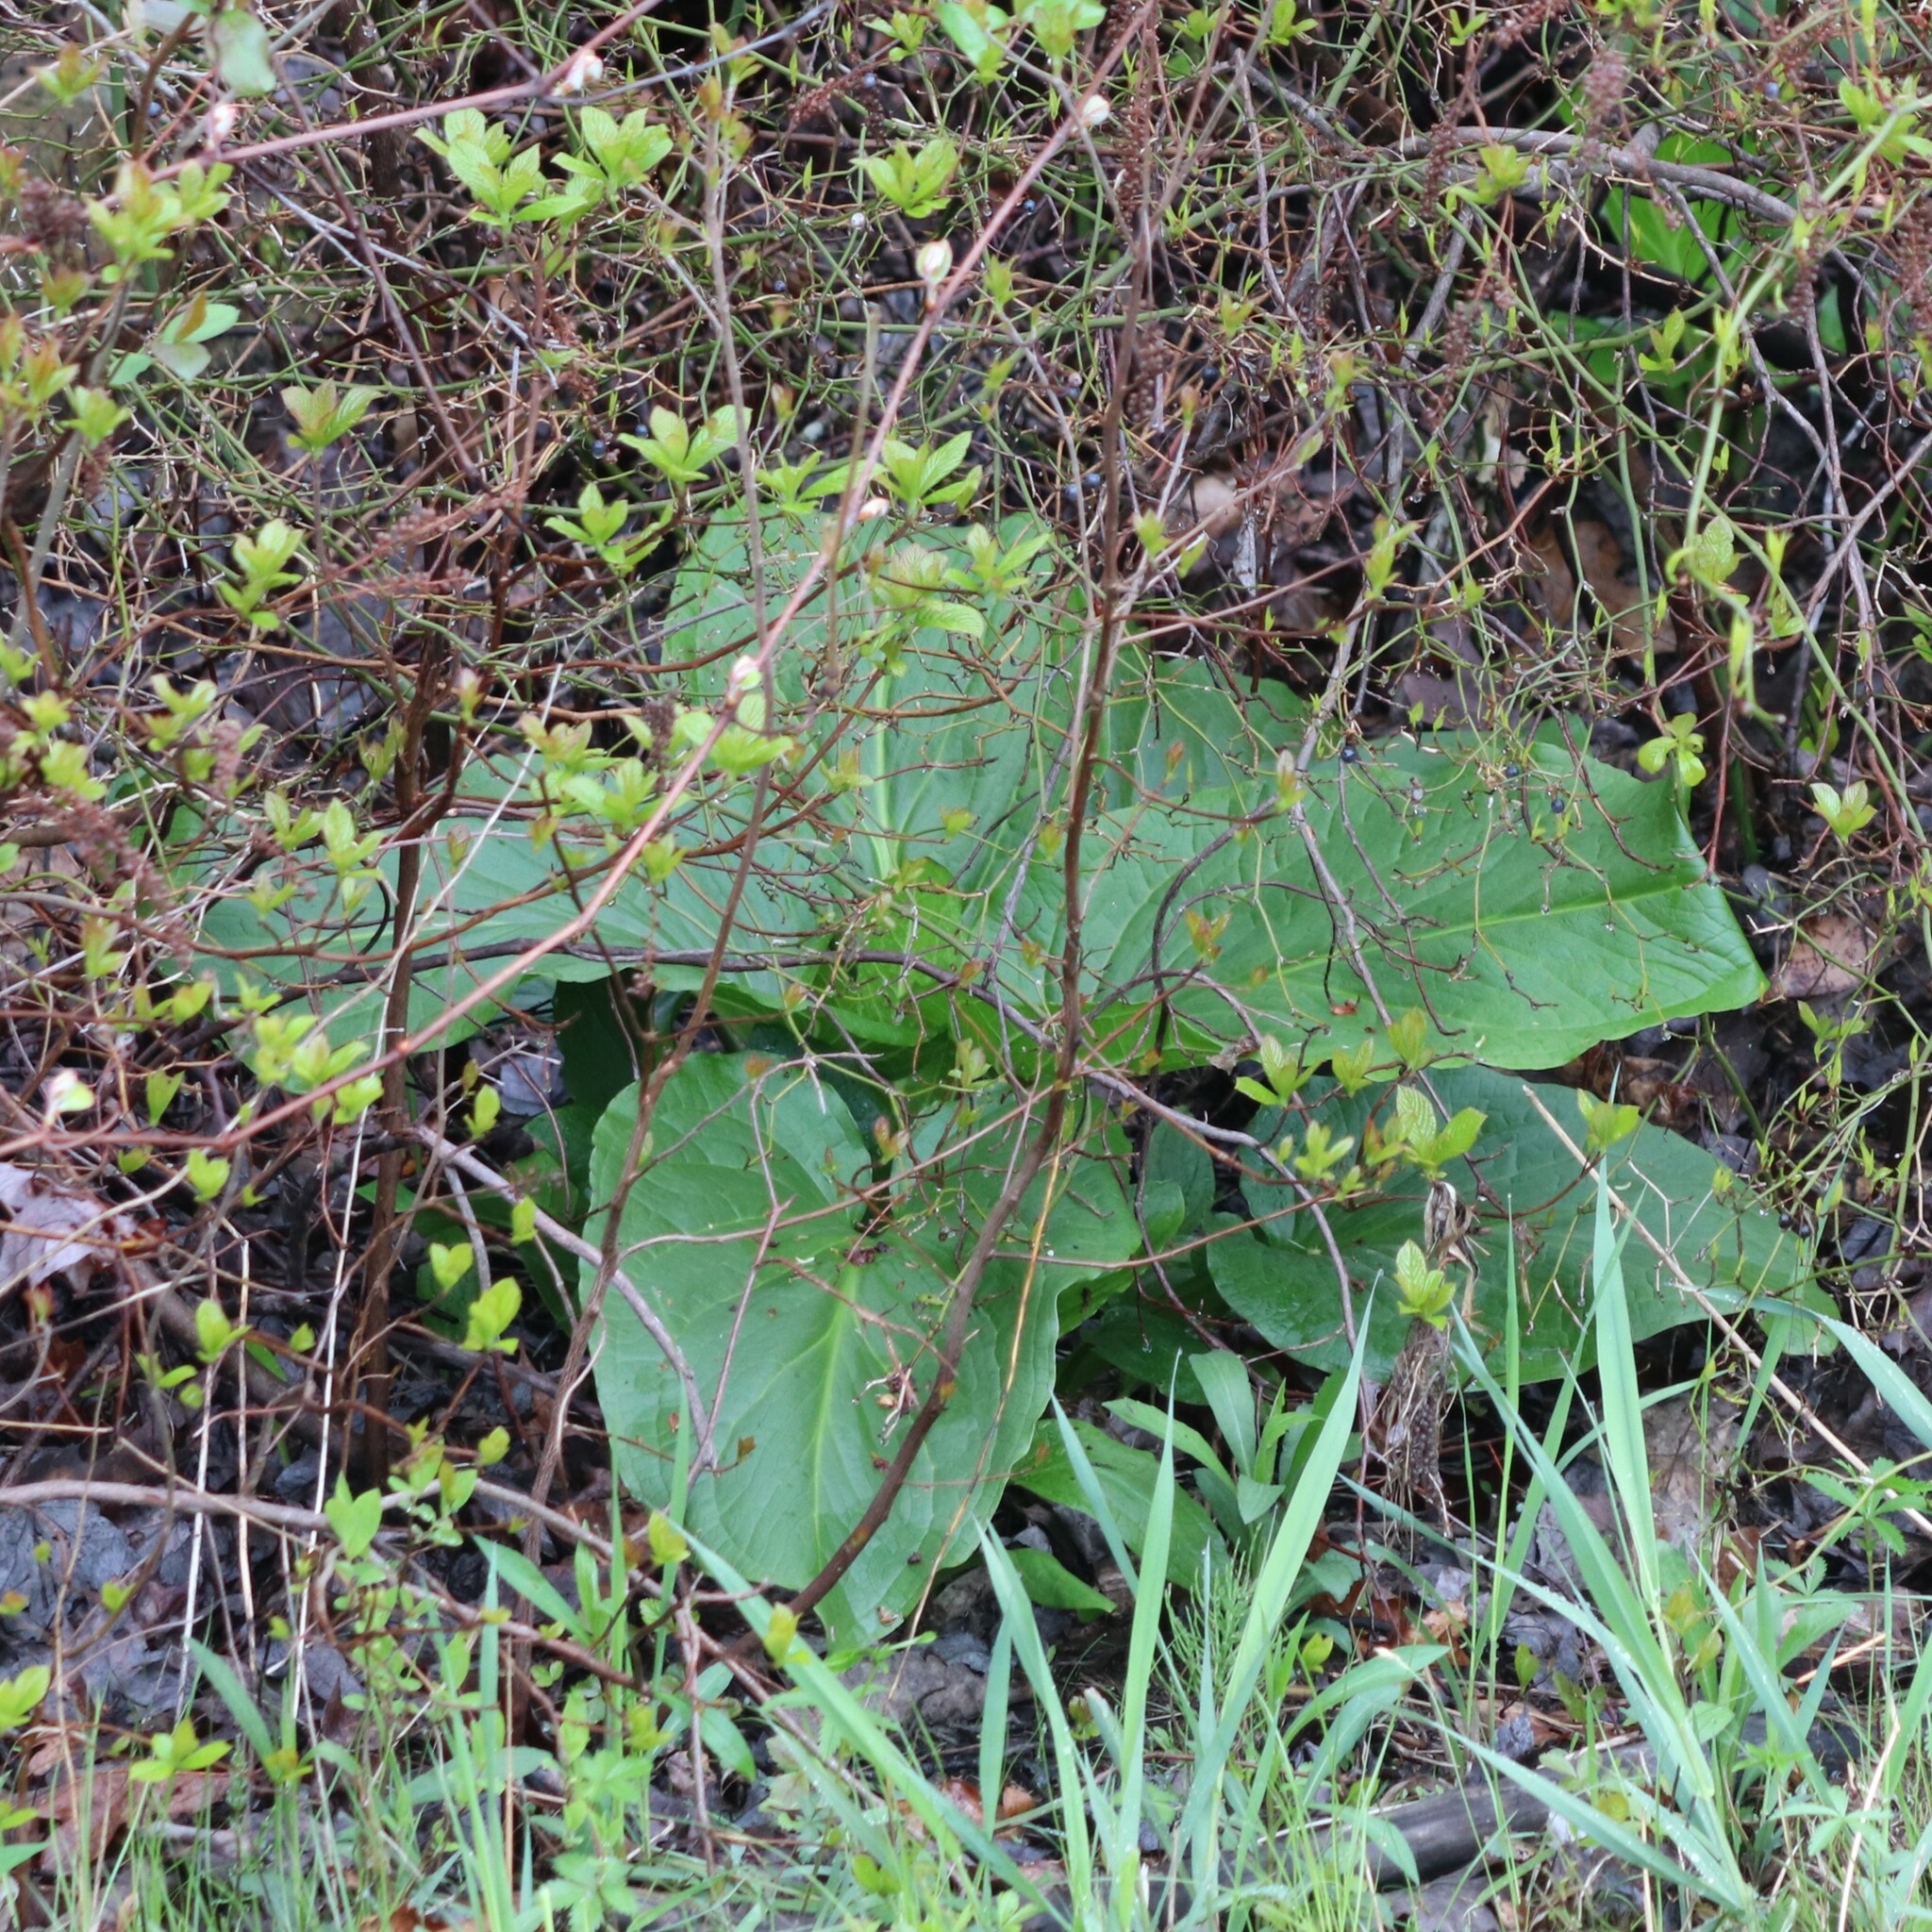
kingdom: Plantae
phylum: Tracheophyta
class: Liliopsida
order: Alismatales
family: Araceae
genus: Symplocarpus
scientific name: Symplocarpus foetidus
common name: Eastern skunk cabbage
